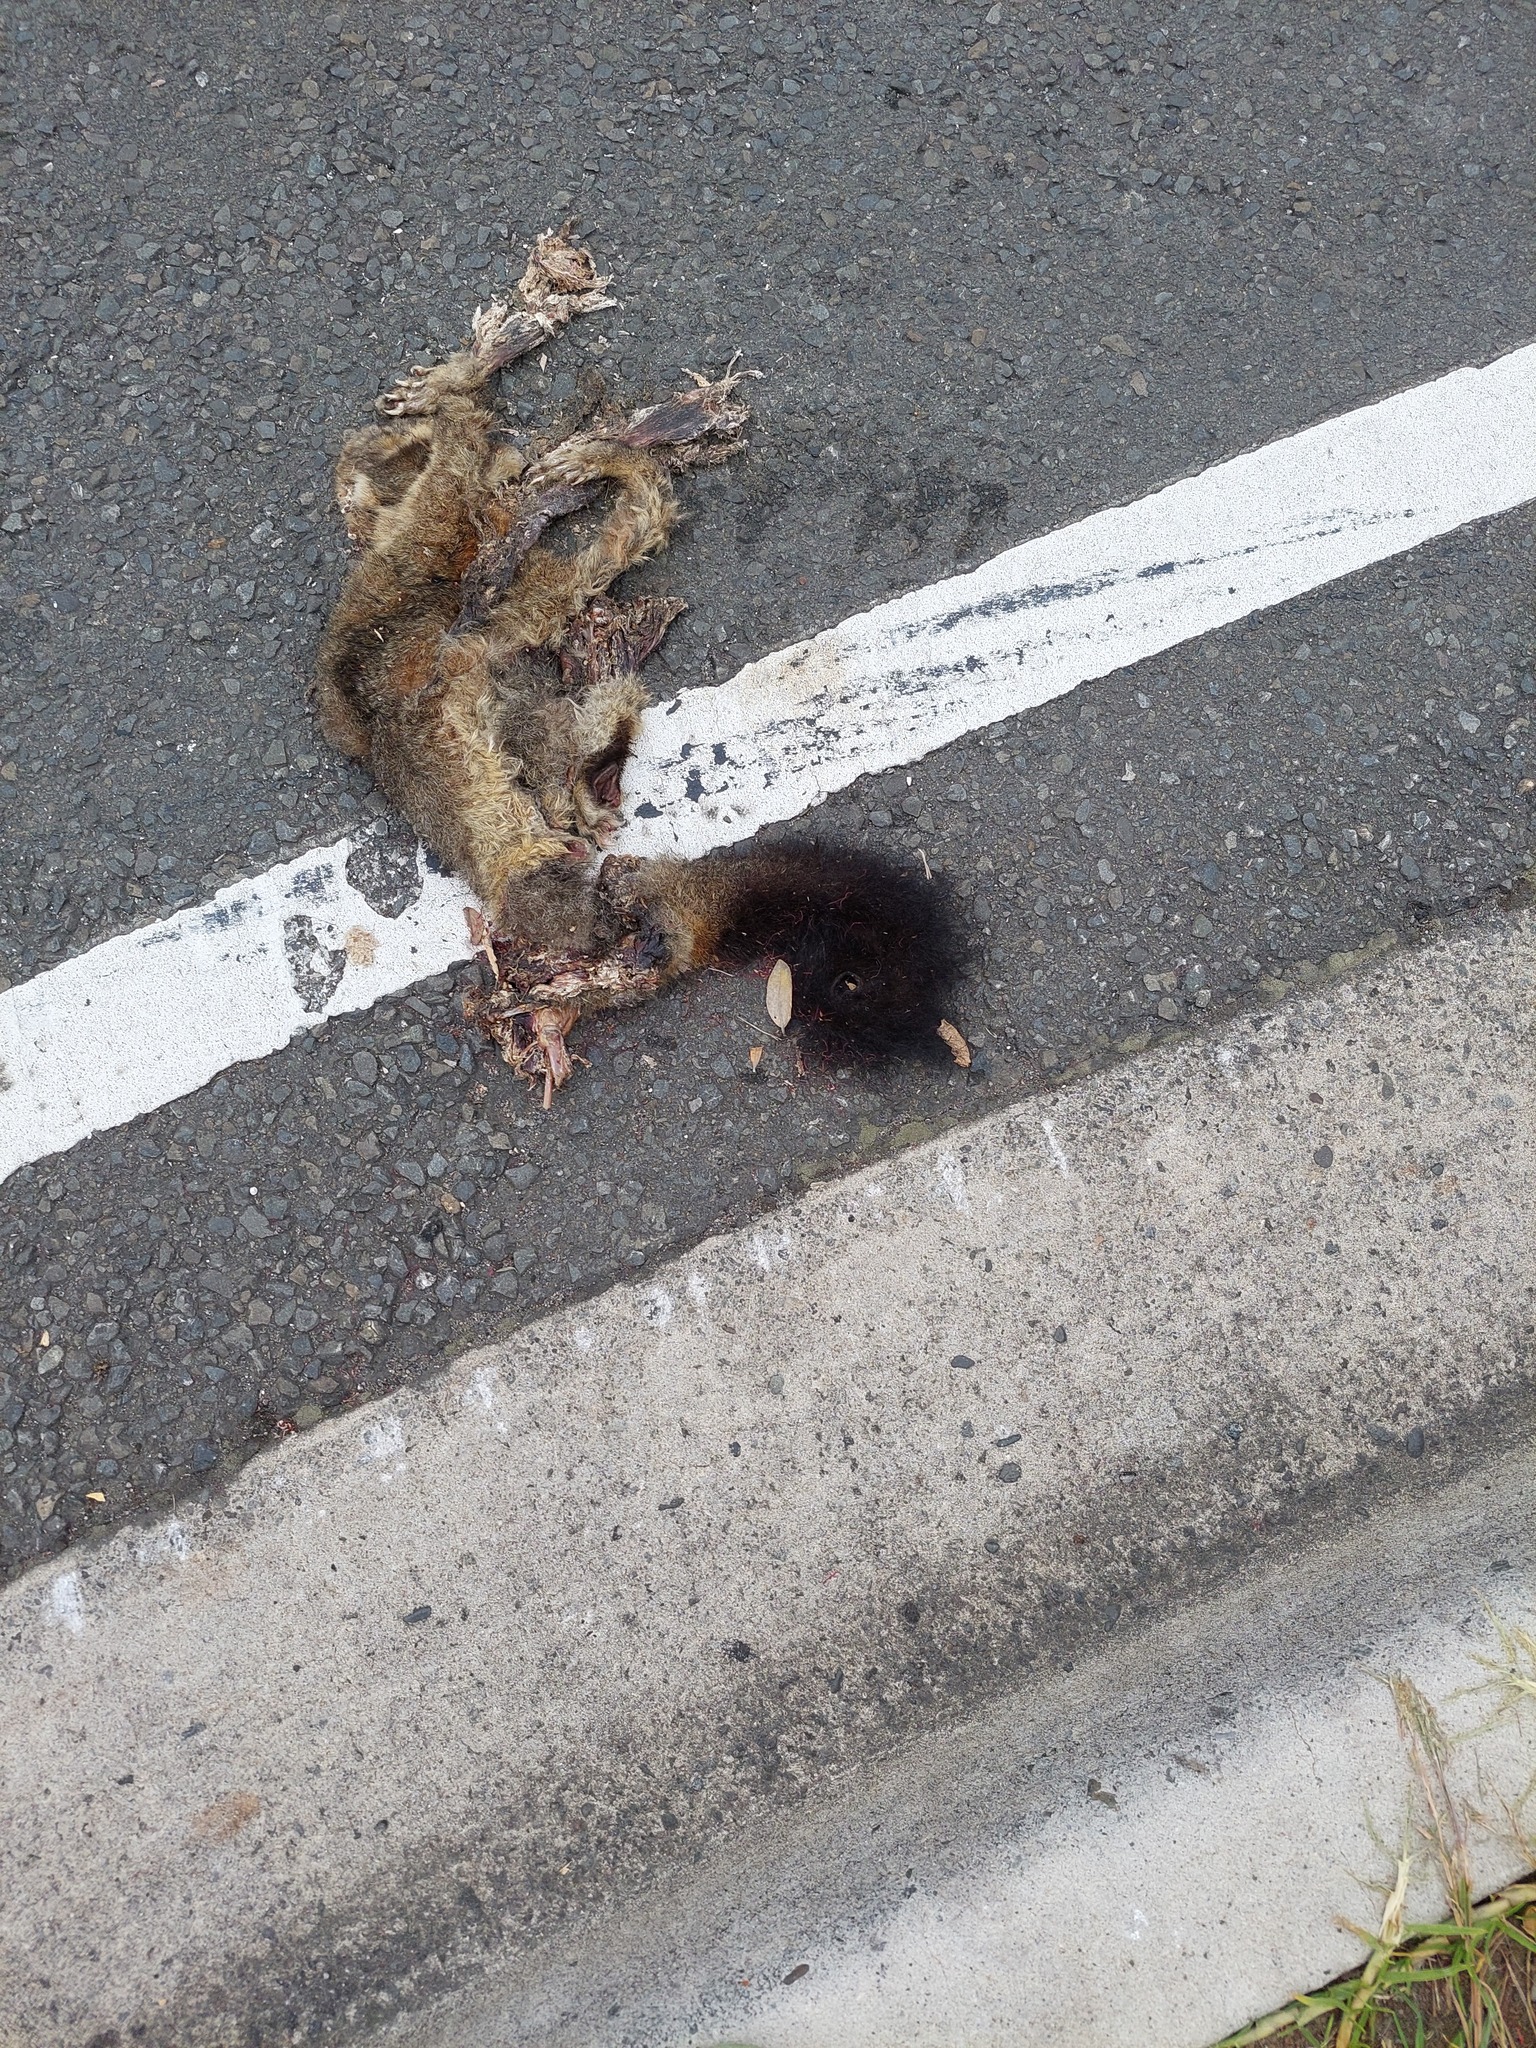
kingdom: Animalia
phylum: Chordata
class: Mammalia
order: Diprotodontia
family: Phalangeridae
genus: Trichosurus
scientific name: Trichosurus vulpecula
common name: Common brushtail
